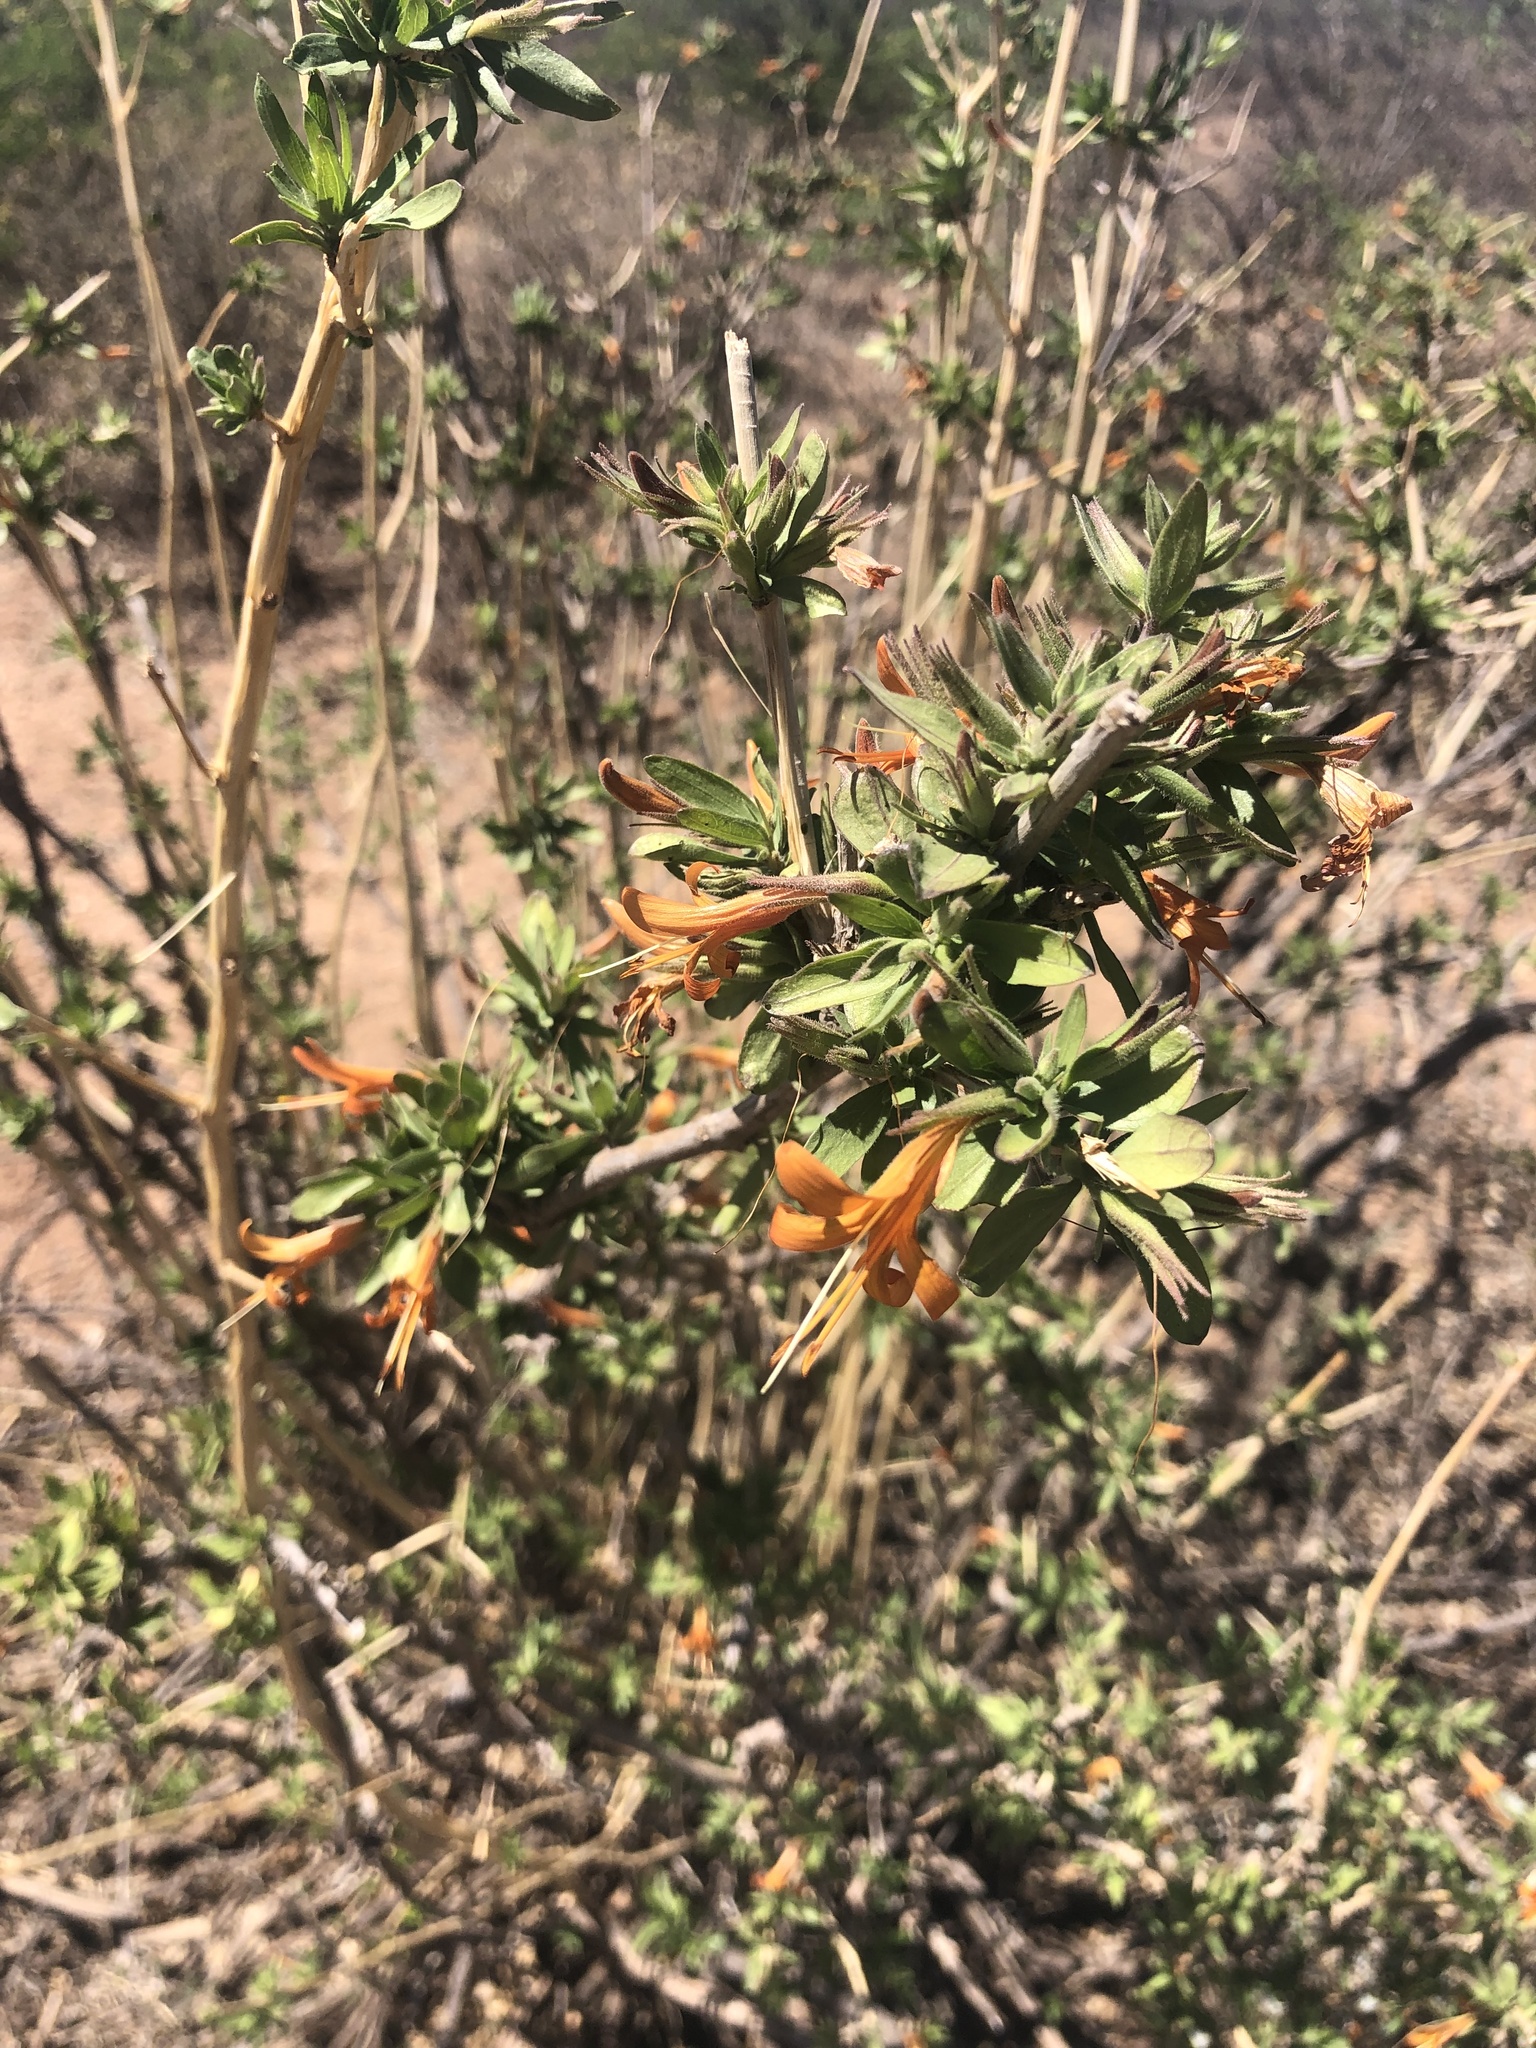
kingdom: Plantae
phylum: Tracheophyta
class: Magnoliopsida
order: Lamiales
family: Acanthaceae
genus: Anisacanthus
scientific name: Anisacanthus thurberi
